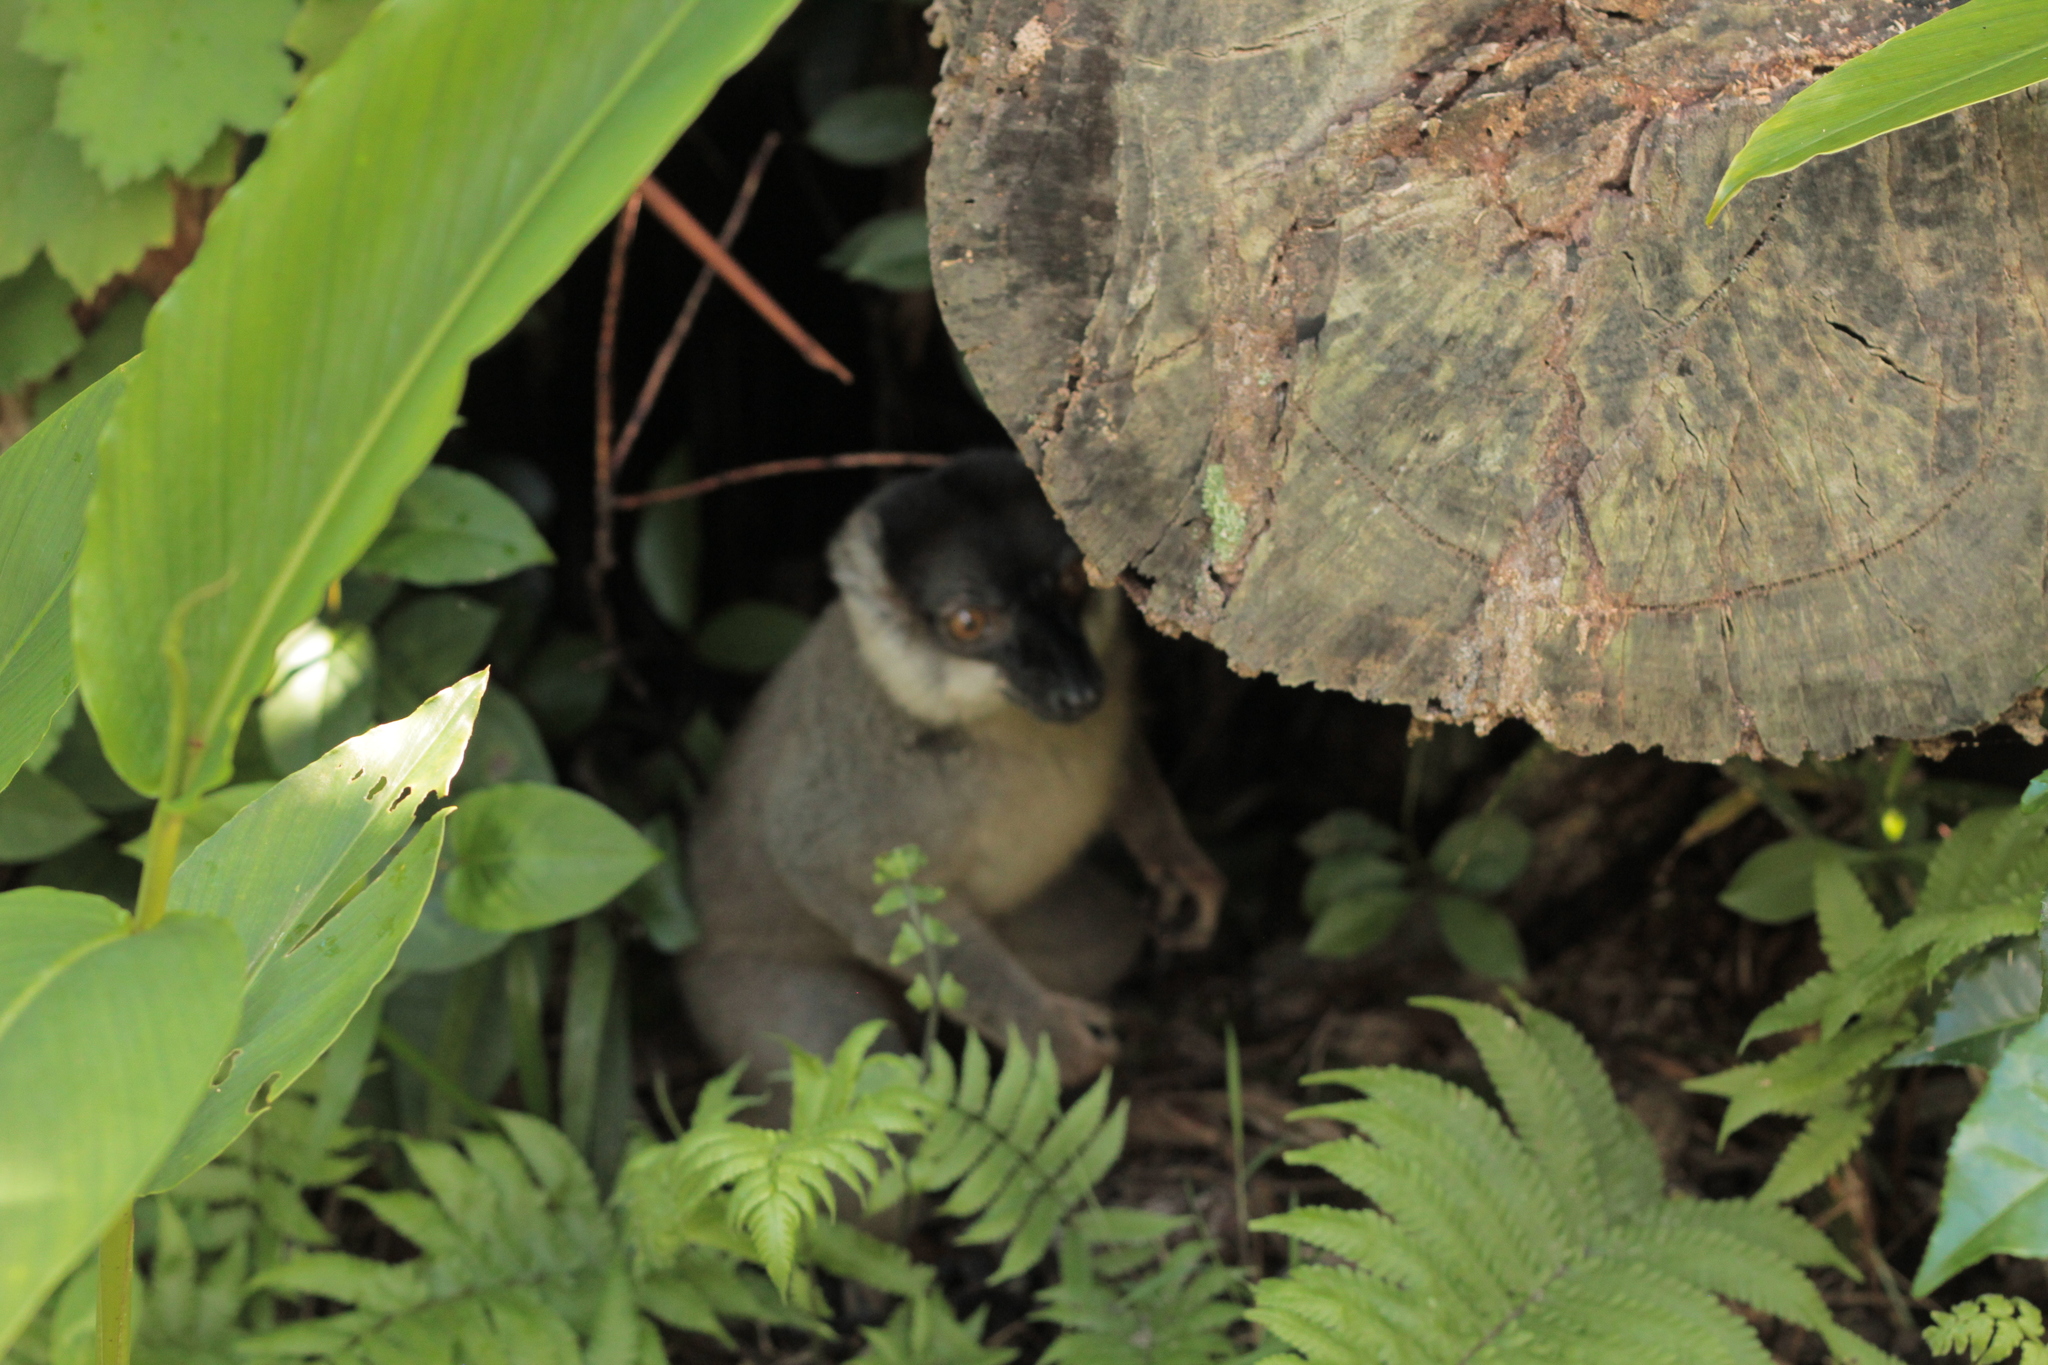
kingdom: Animalia
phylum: Chordata
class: Mammalia
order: Primates
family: Lemuridae
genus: Eulemur
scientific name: Eulemur fulvus
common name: Brown lemur
